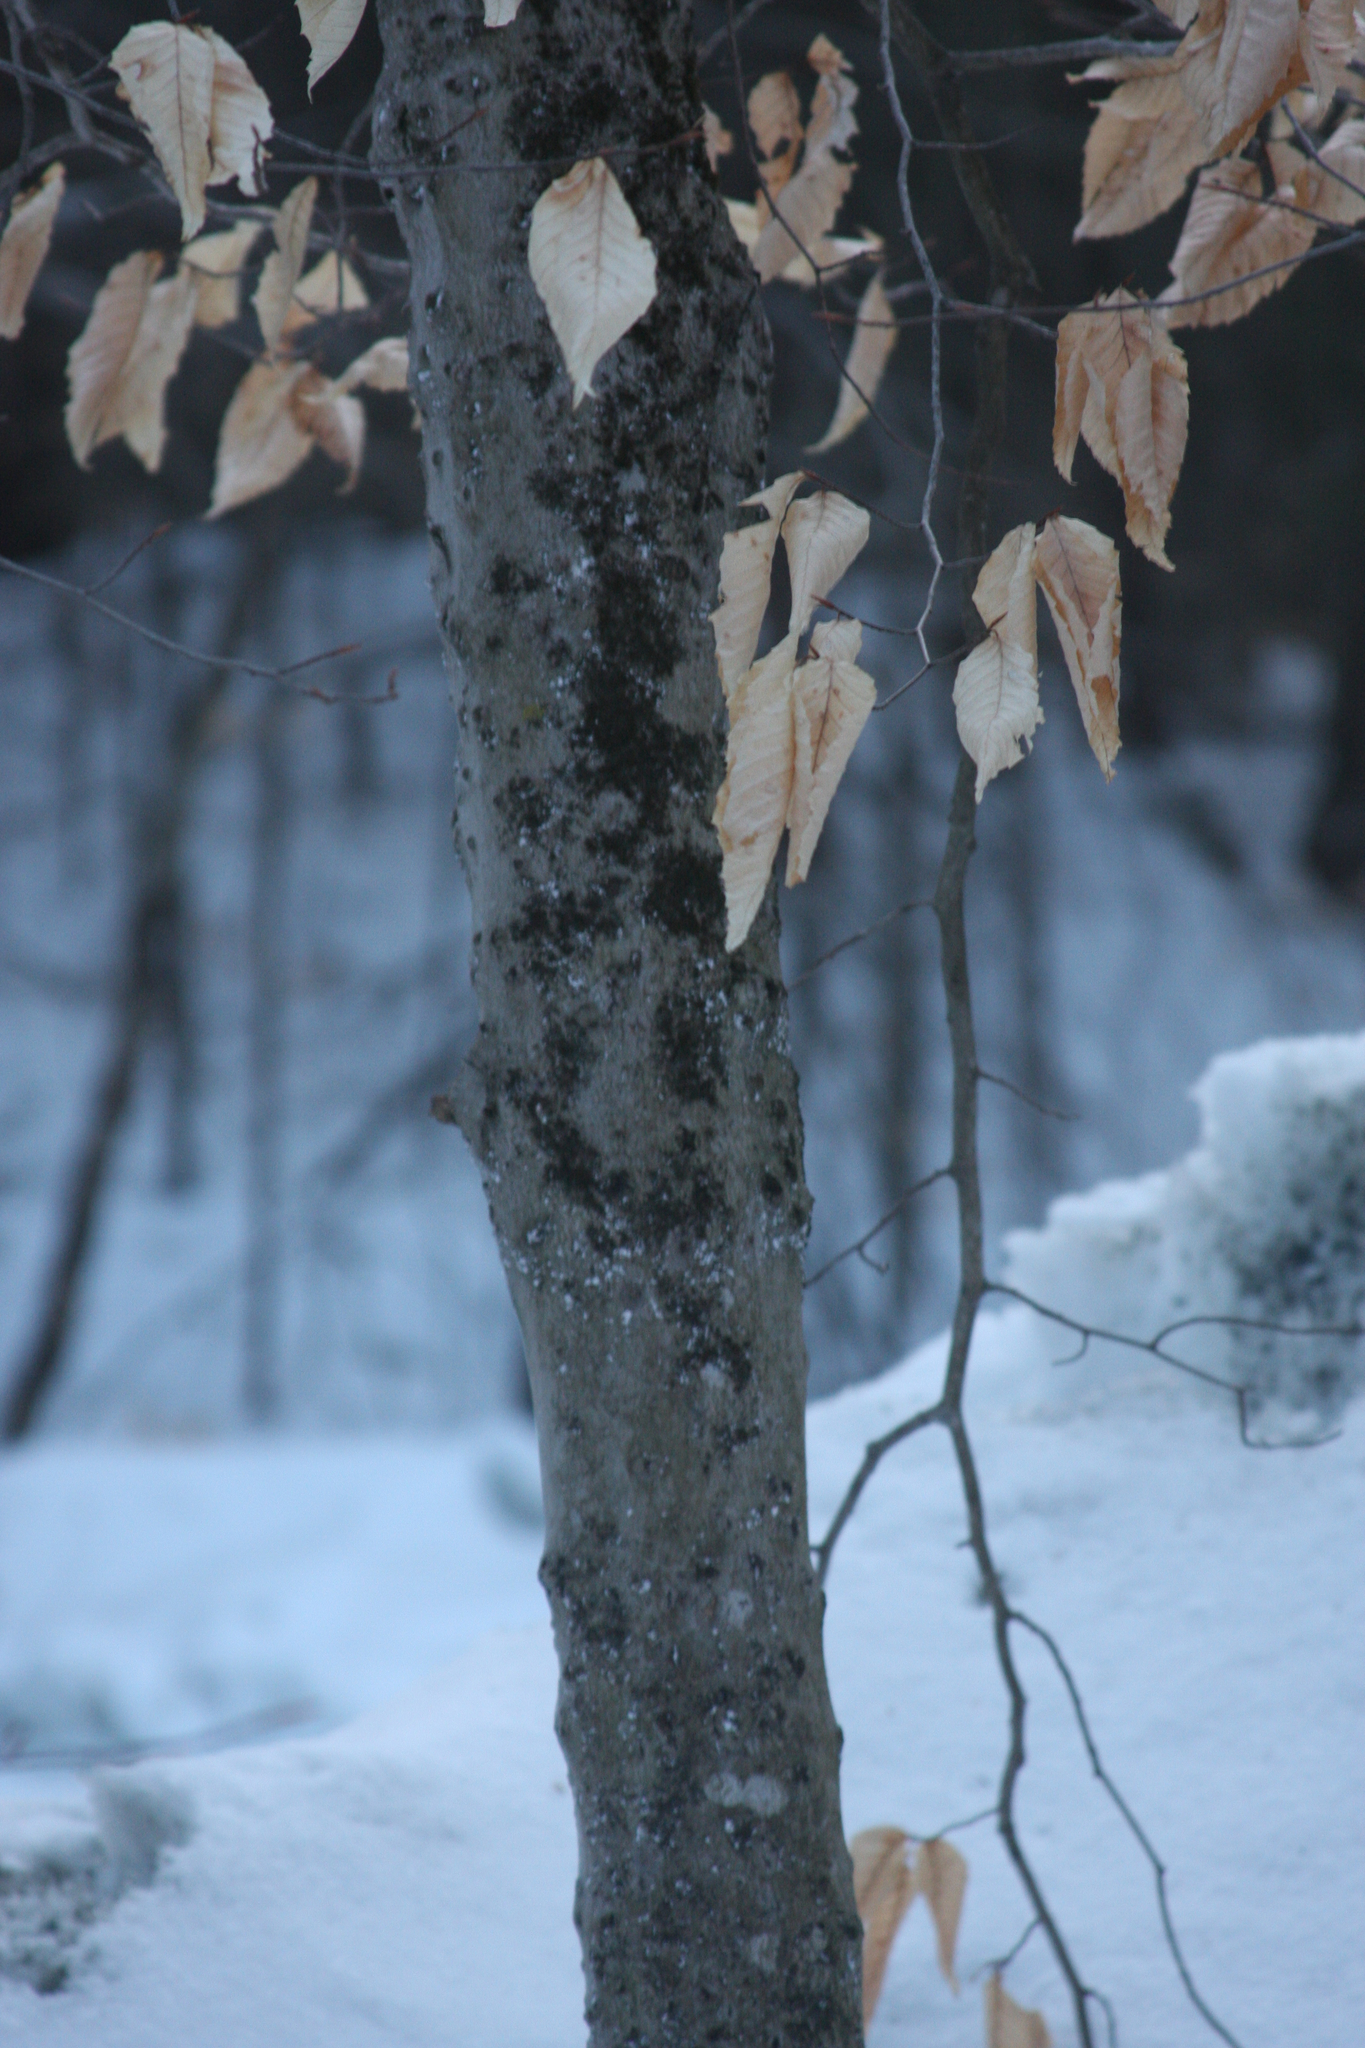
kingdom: Plantae
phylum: Tracheophyta
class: Magnoliopsida
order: Fagales
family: Fagaceae
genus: Fagus
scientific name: Fagus grandifolia
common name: American beech
